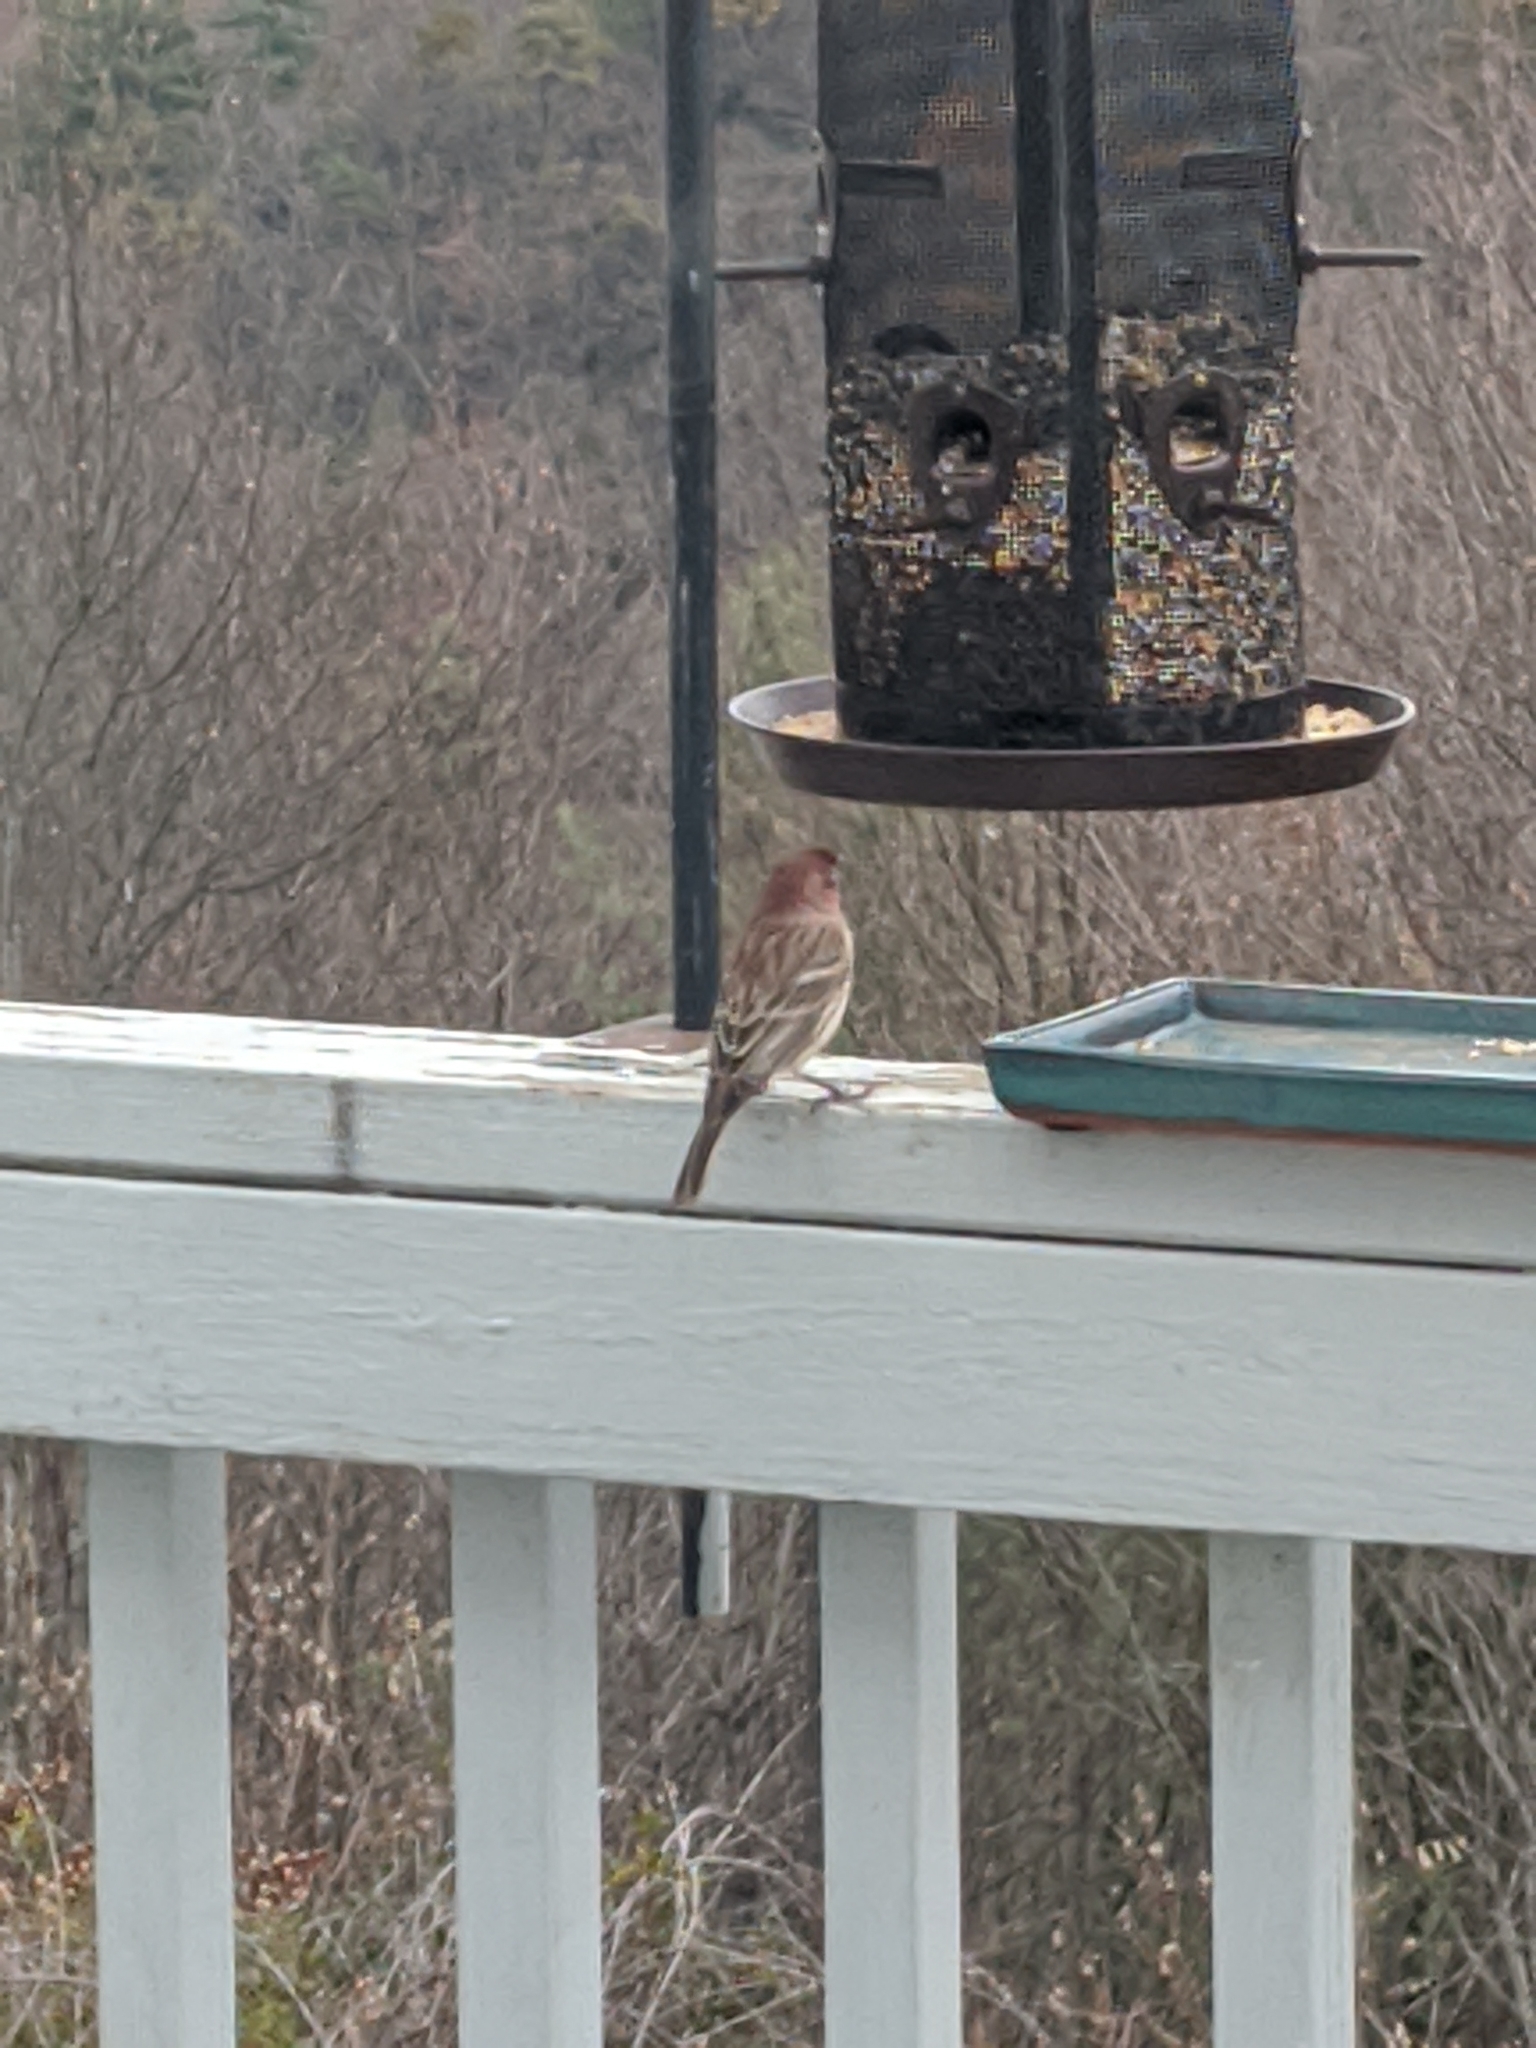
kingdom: Animalia
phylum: Chordata
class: Aves
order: Passeriformes
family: Fringillidae
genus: Haemorhous
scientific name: Haemorhous mexicanus
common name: House finch
